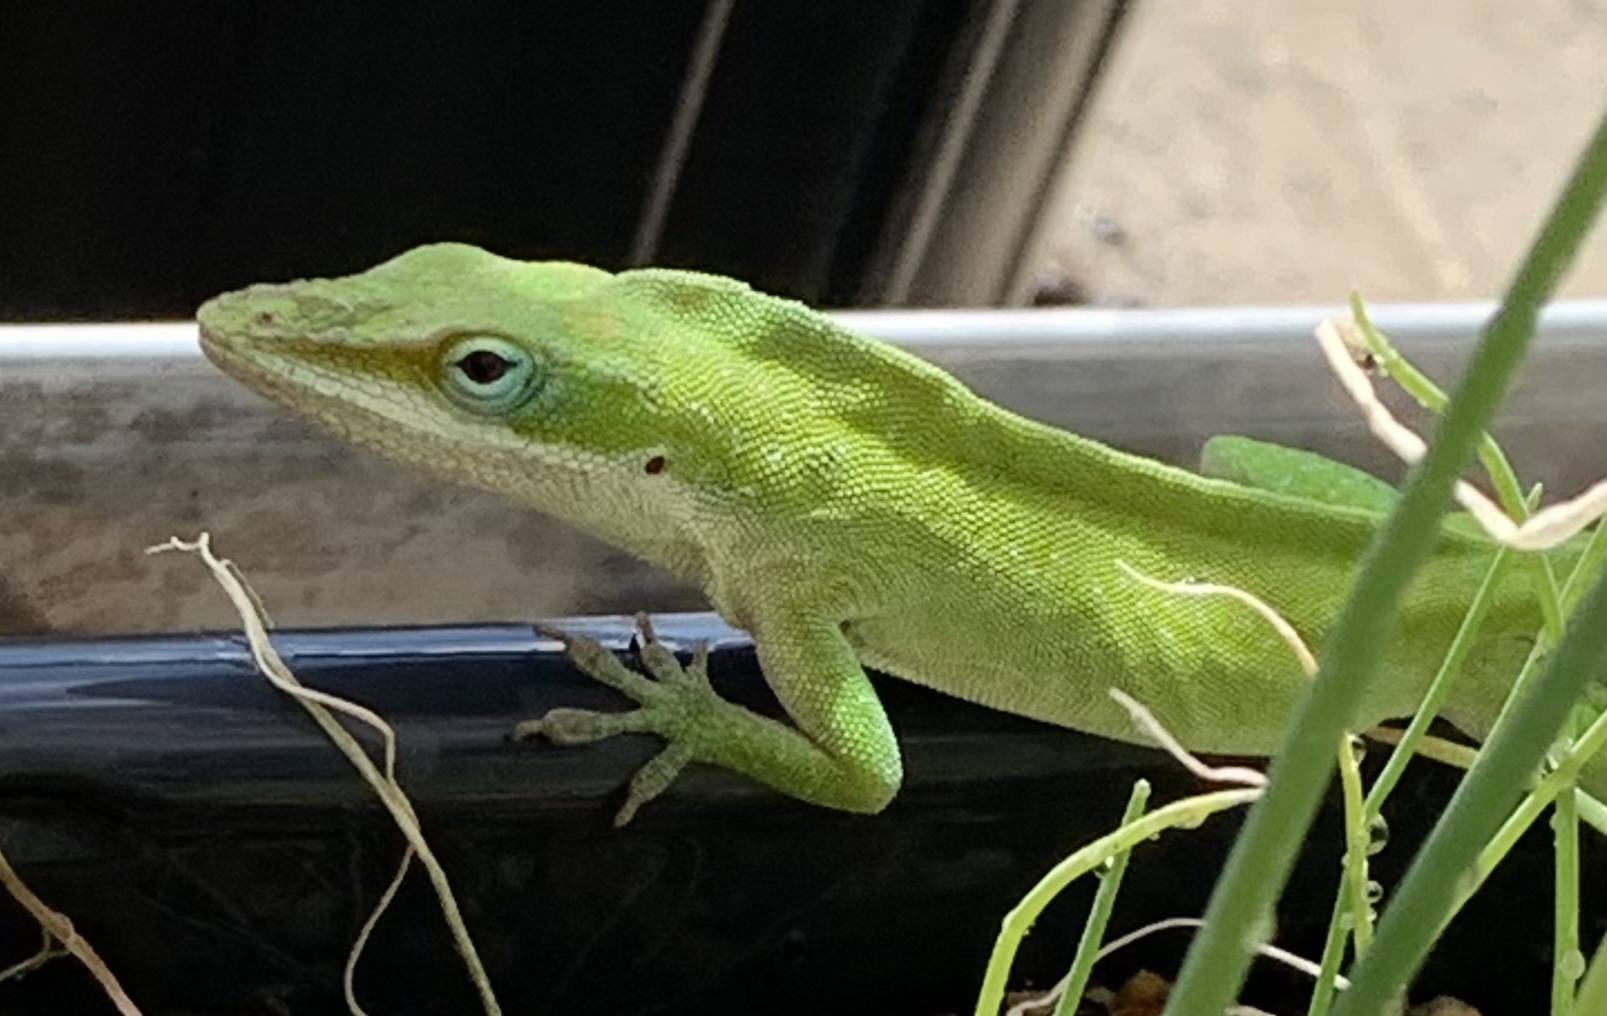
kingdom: Animalia
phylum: Chordata
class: Squamata
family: Dactyloidae
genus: Anolis
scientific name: Anolis carolinensis
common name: Green anole
